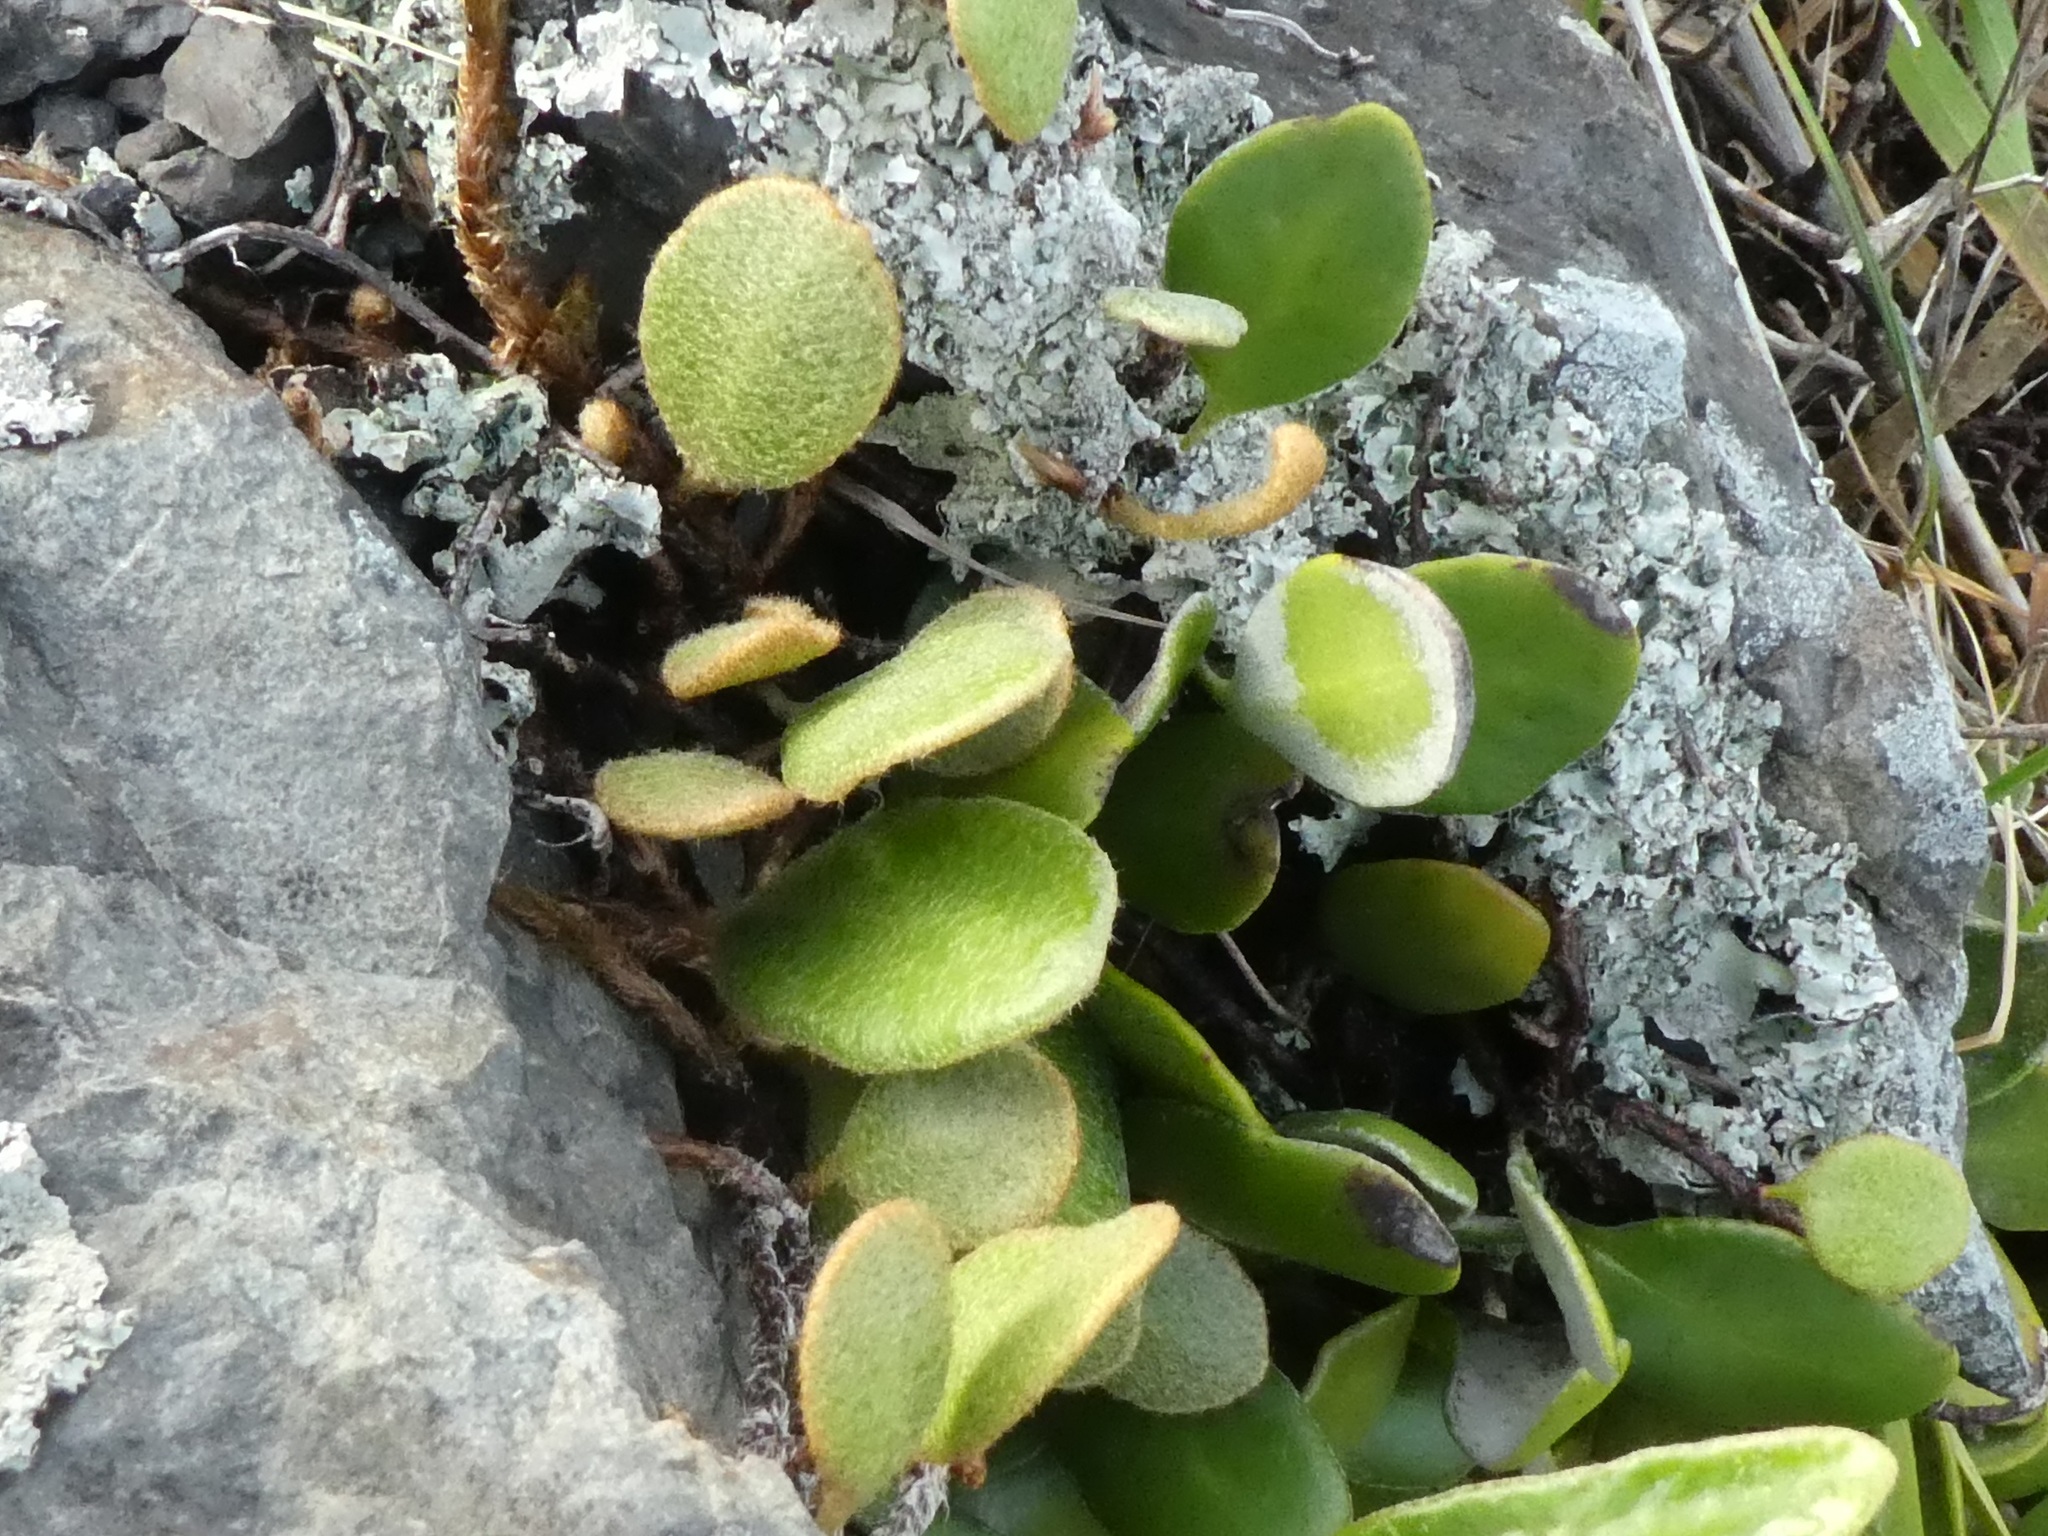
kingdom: Plantae
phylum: Tracheophyta
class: Polypodiopsida
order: Polypodiales
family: Polypodiaceae
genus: Pyrrosia
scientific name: Pyrrosia eleagnifolia
